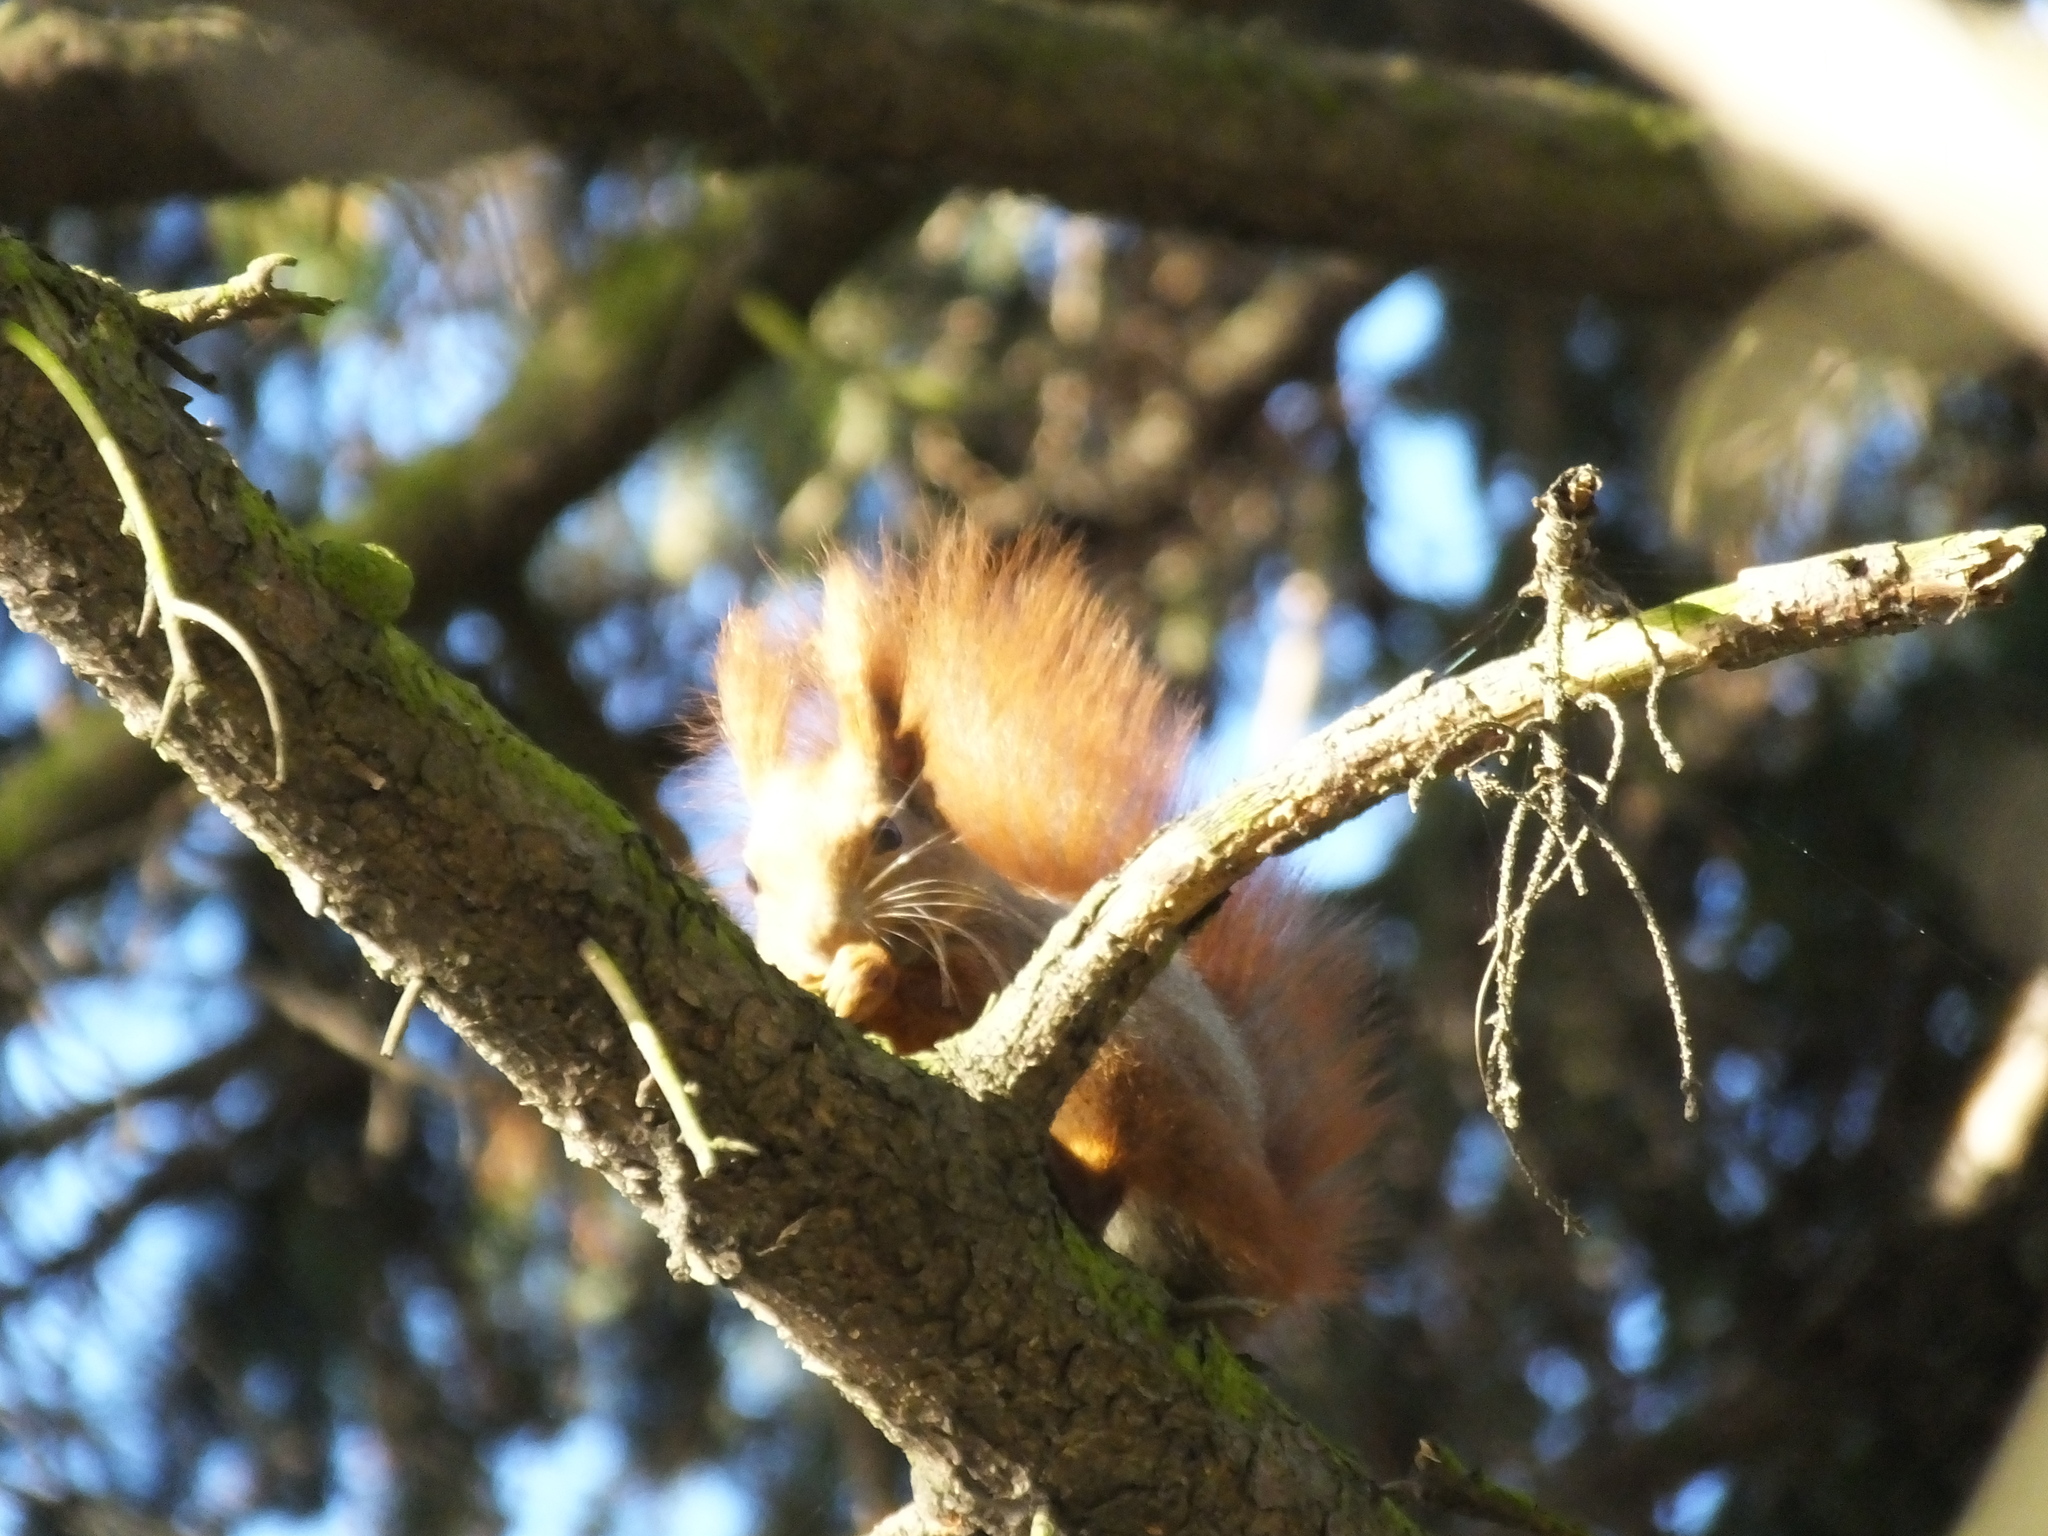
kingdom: Animalia
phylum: Chordata
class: Mammalia
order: Rodentia
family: Sciuridae
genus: Sciurus
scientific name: Sciurus vulgaris
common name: Eurasian red squirrel
